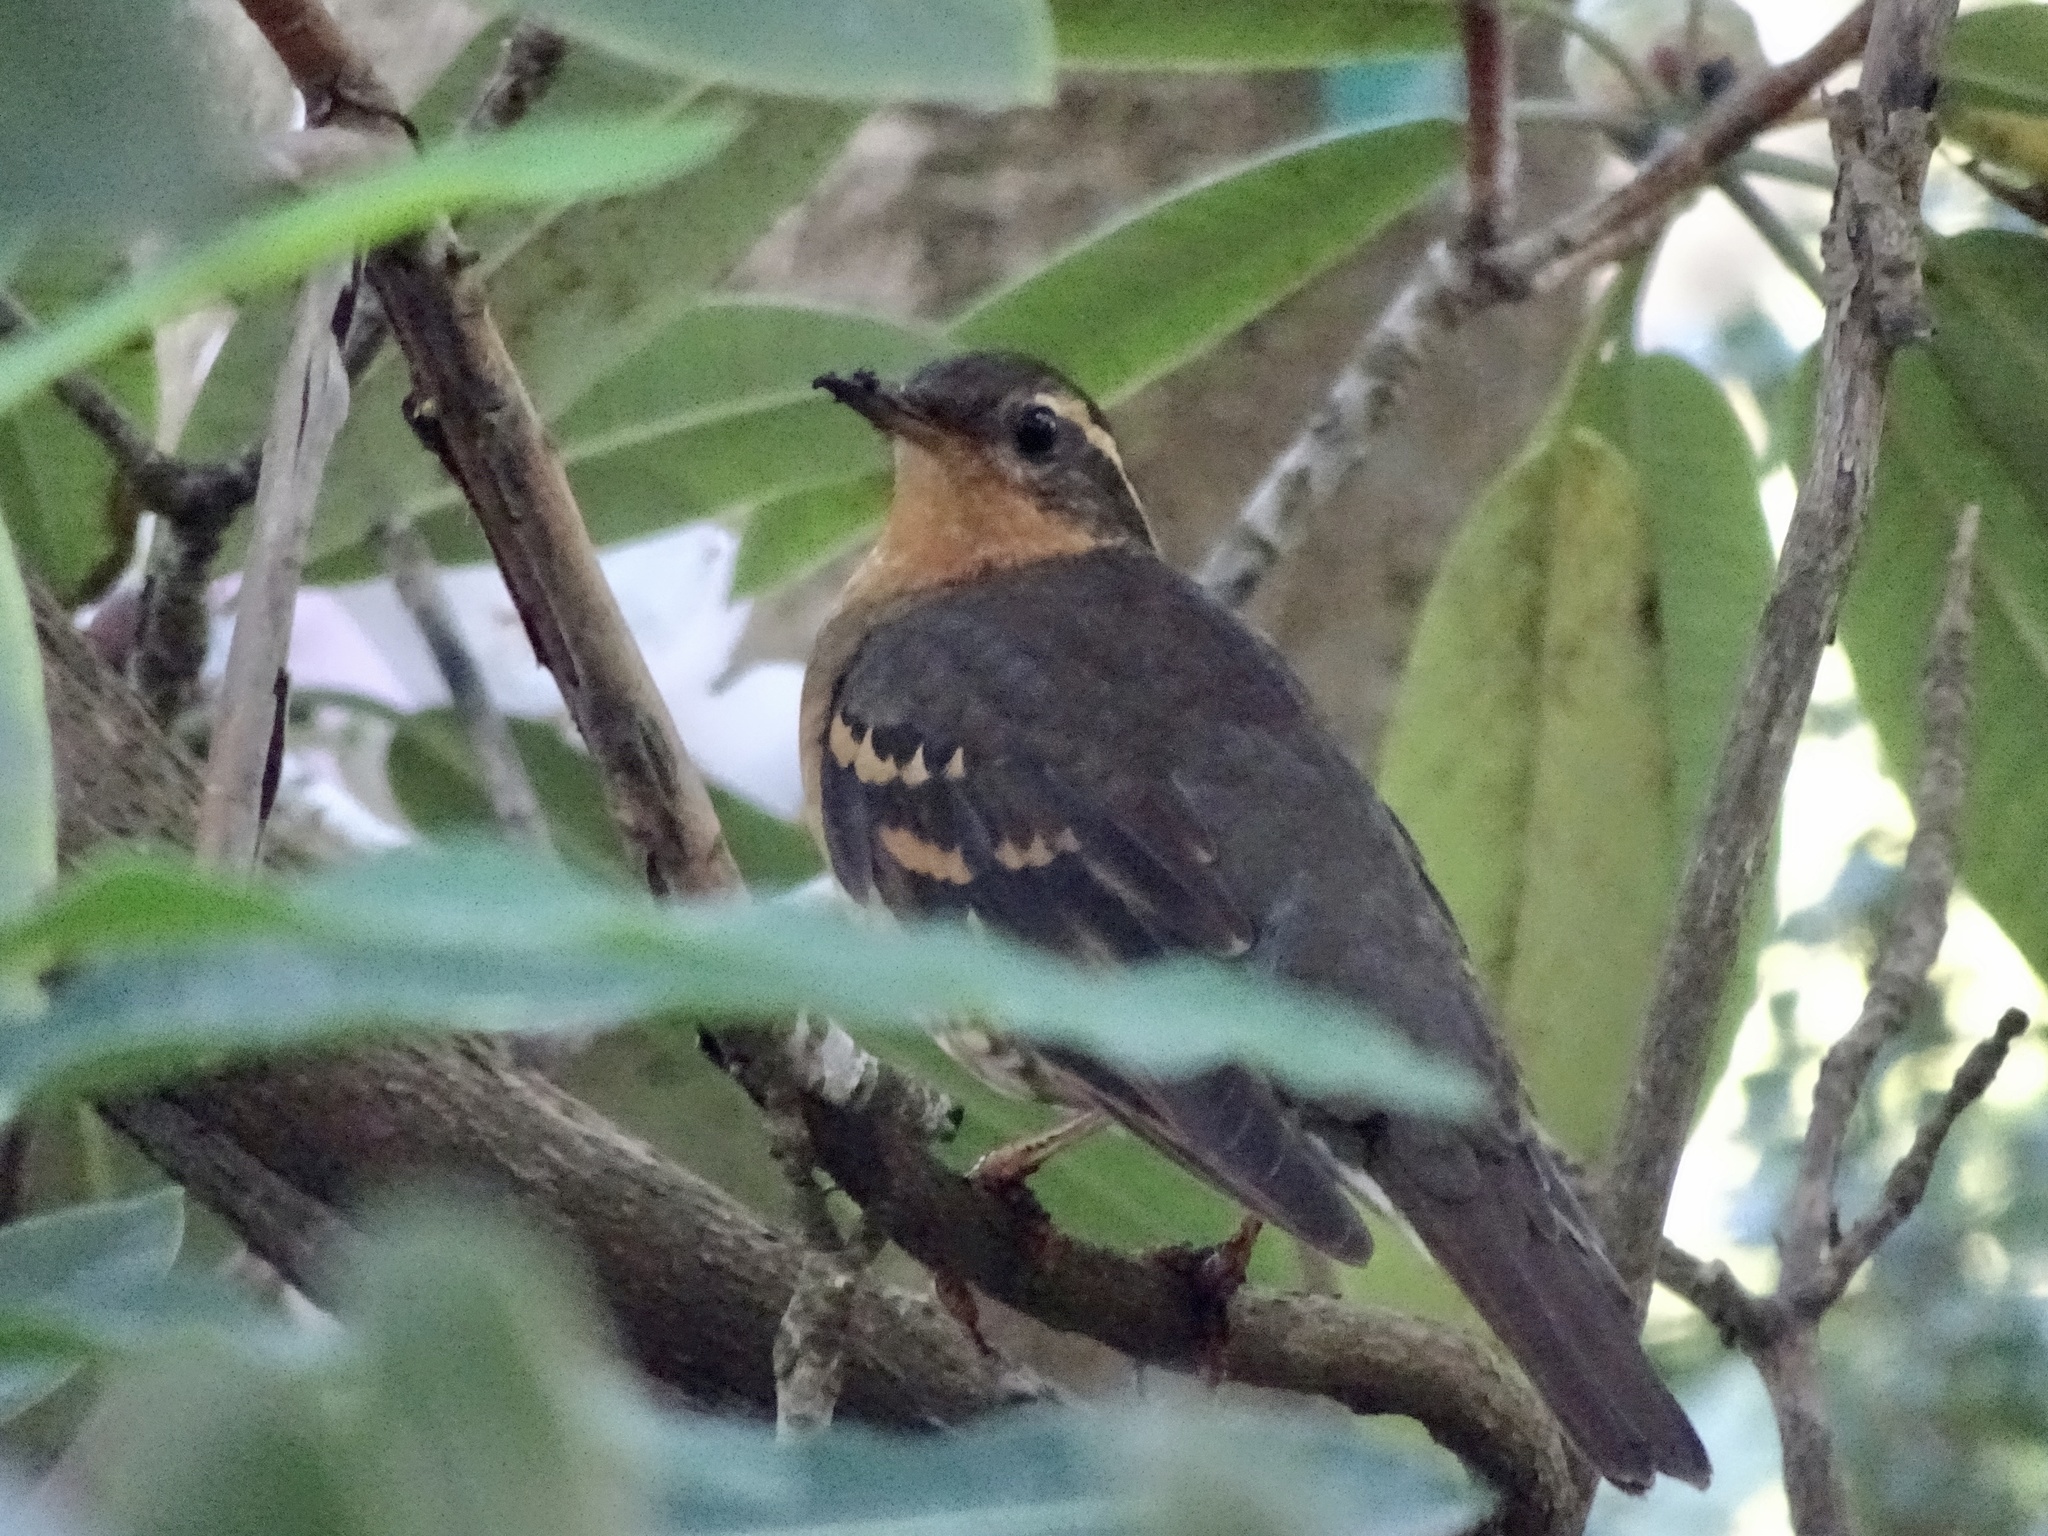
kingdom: Animalia
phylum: Chordata
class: Aves
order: Passeriformes
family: Turdidae
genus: Ixoreus
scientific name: Ixoreus naevius
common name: Varied thrush
